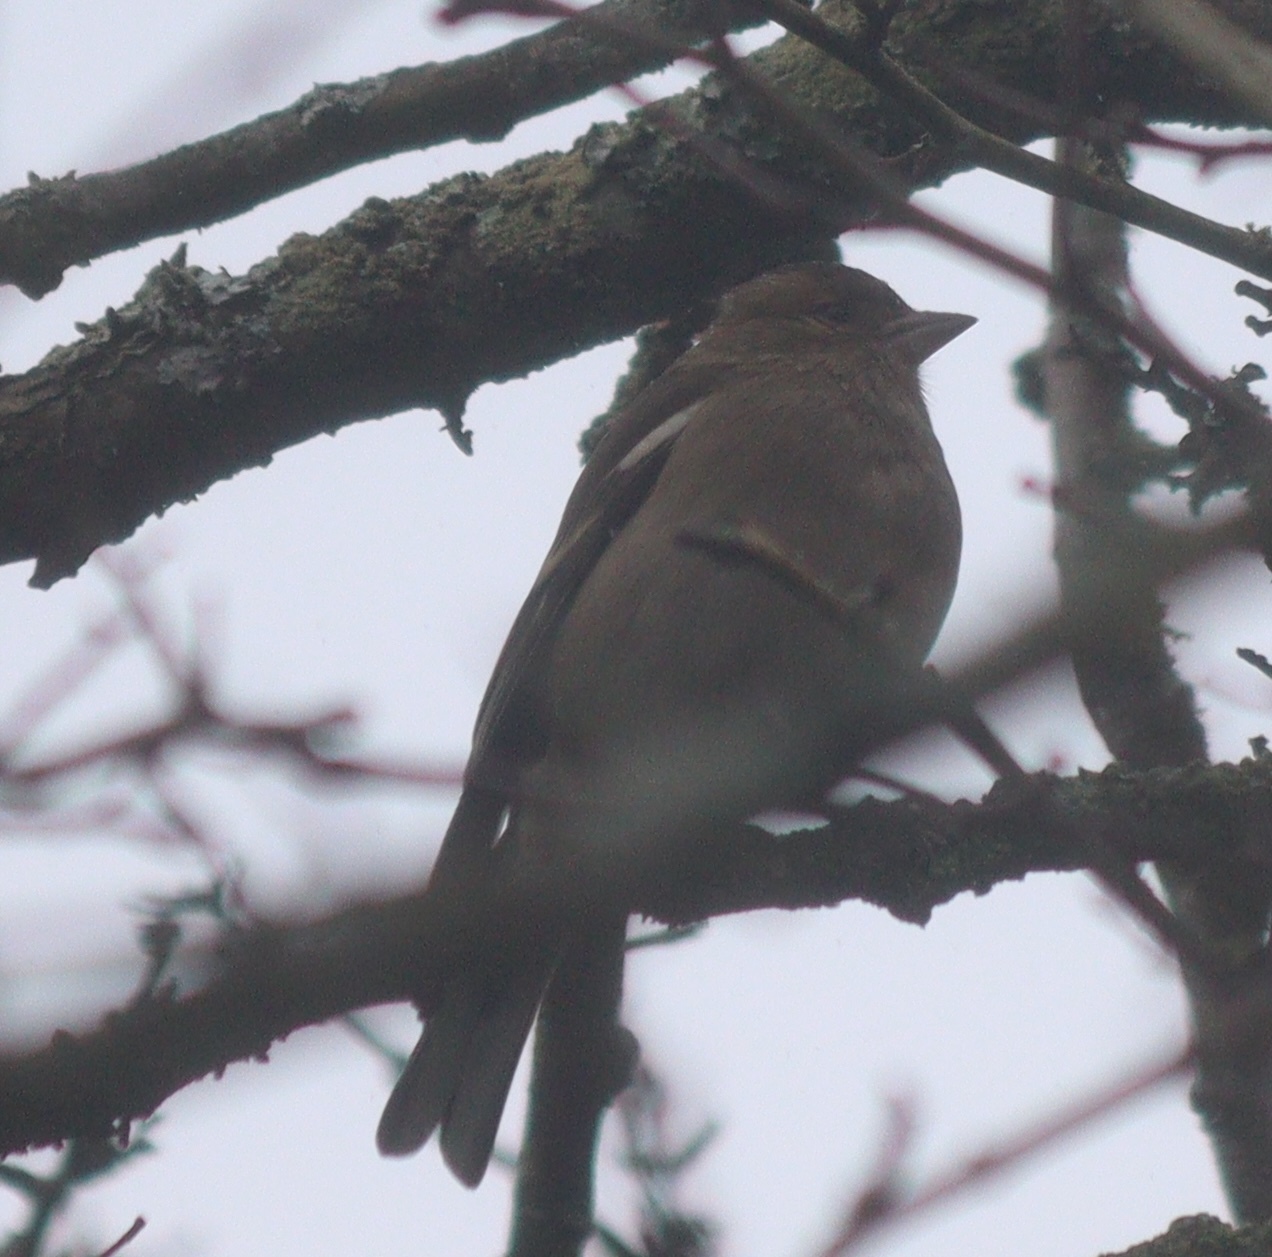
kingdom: Animalia
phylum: Chordata
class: Aves
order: Passeriformes
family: Fringillidae
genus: Fringilla
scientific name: Fringilla coelebs
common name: Common chaffinch
